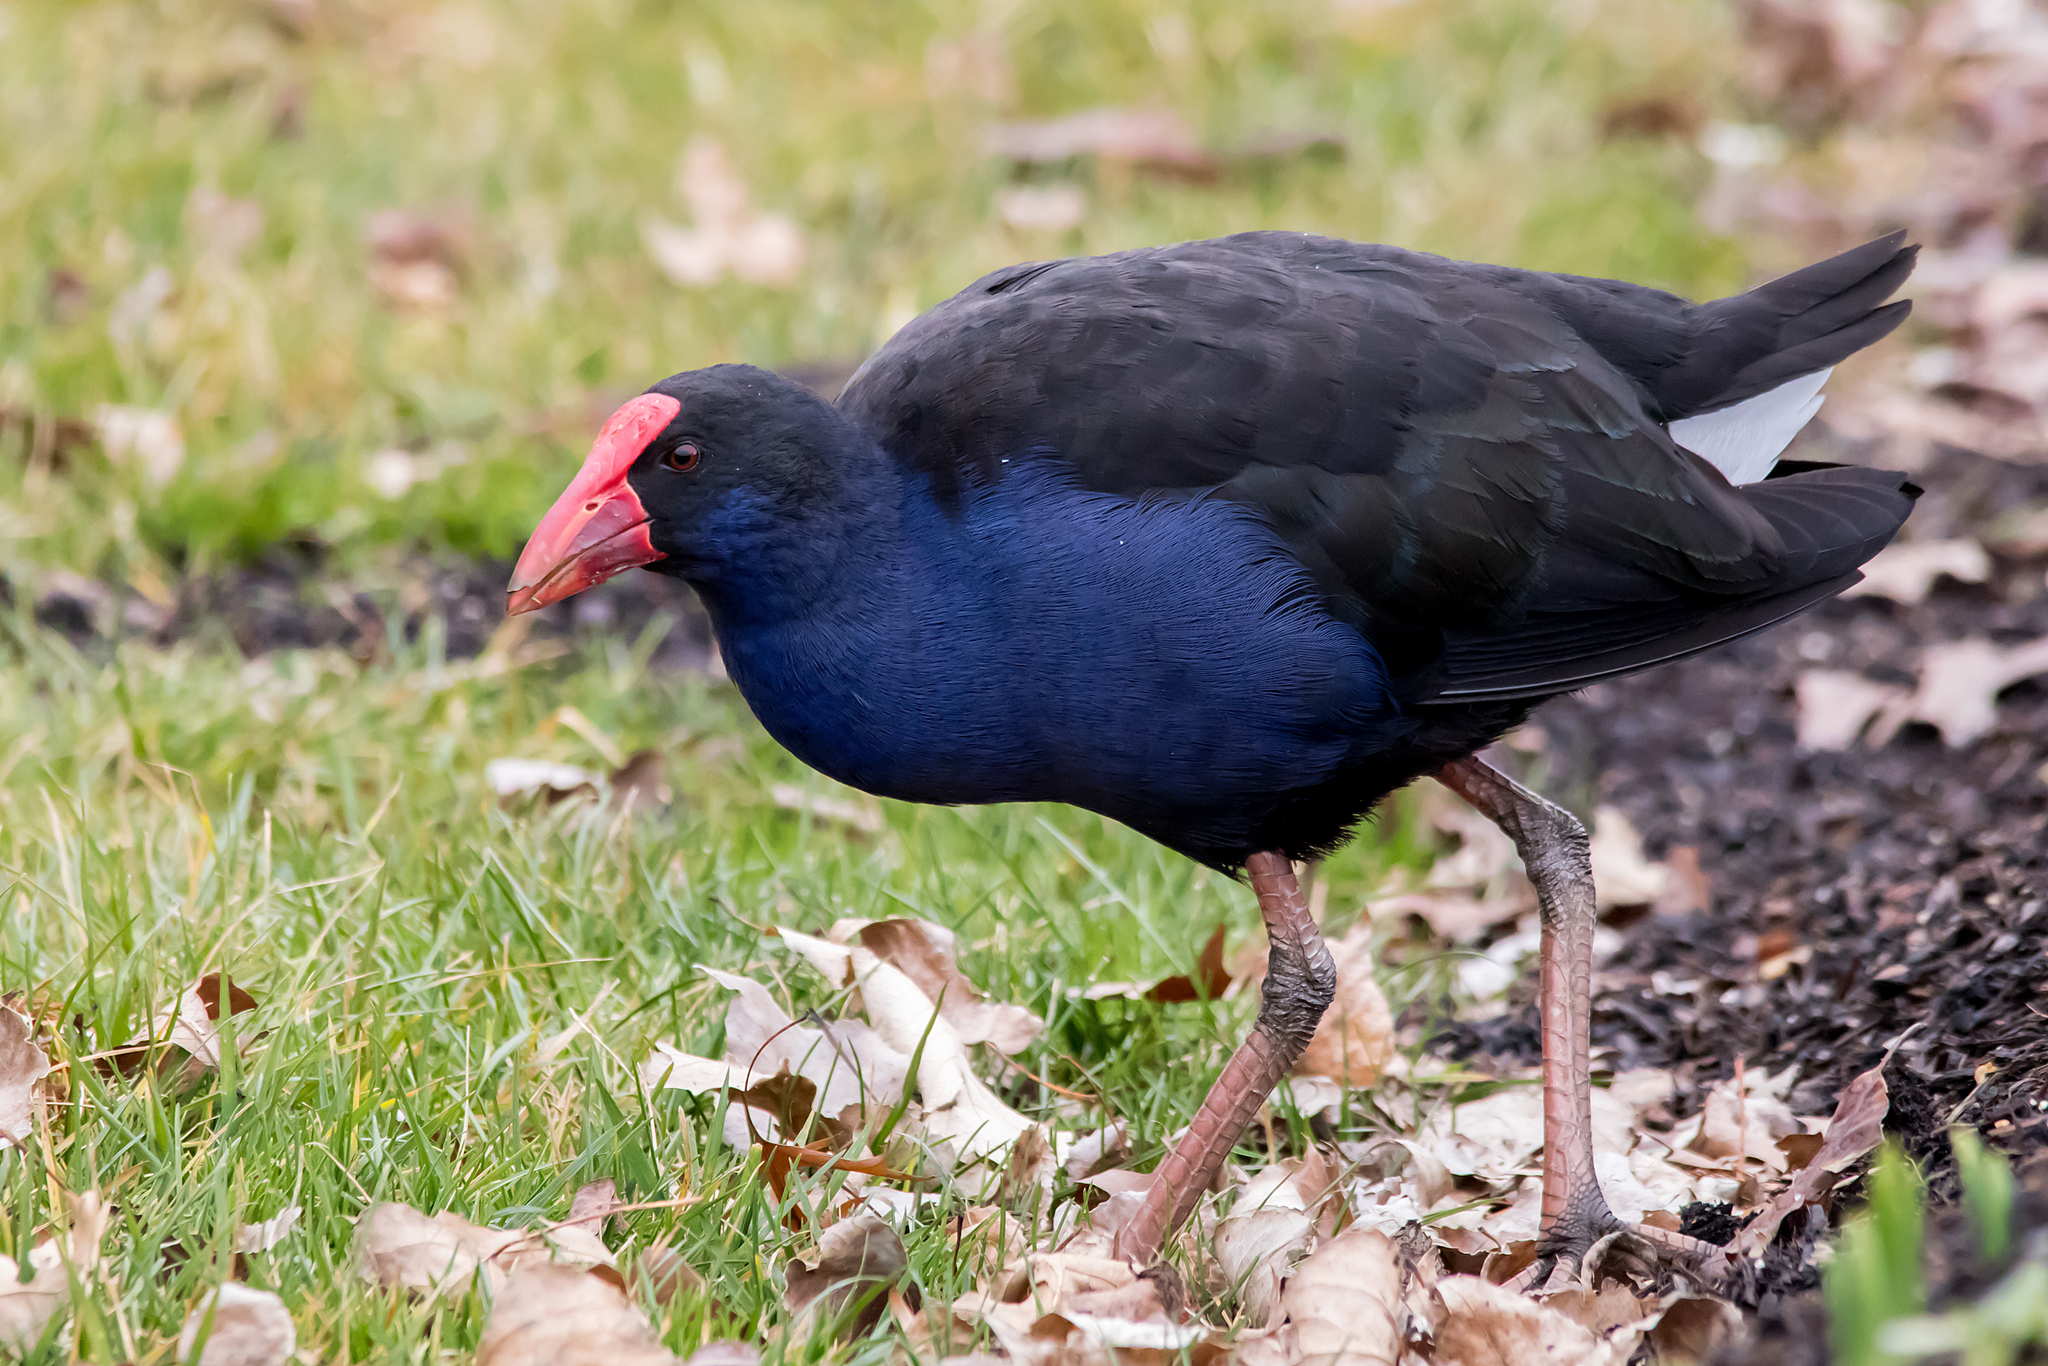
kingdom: Animalia
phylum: Chordata
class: Aves
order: Gruiformes
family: Rallidae
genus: Porphyrio
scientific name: Porphyrio melanotus
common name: Australasian swamphen
